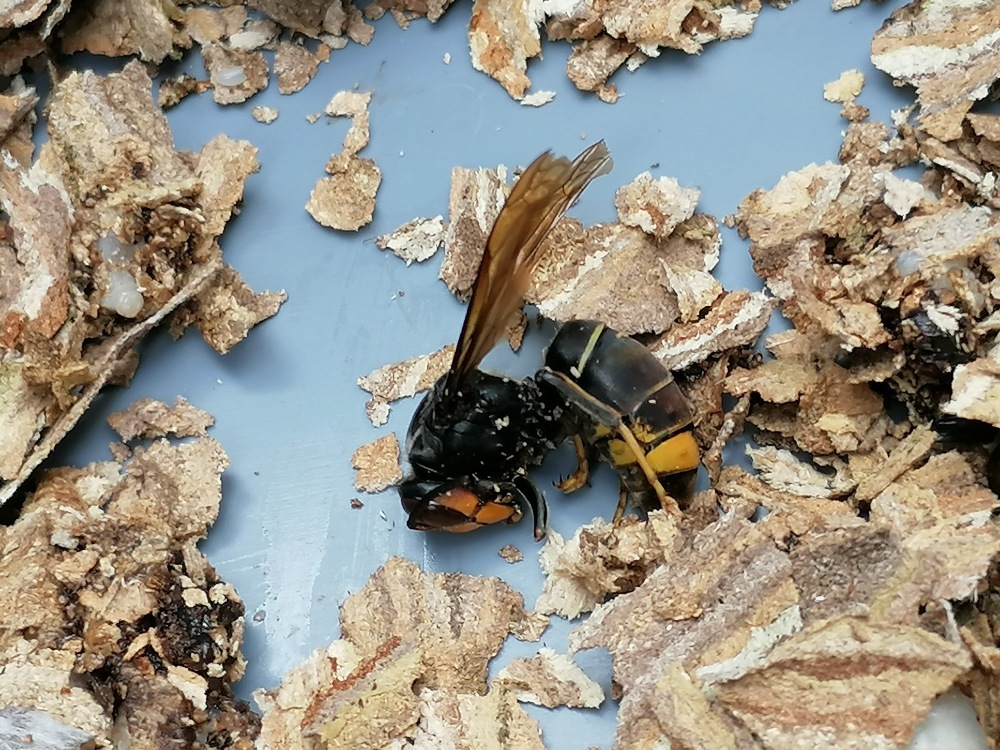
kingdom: Animalia
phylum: Arthropoda
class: Insecta
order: Hymenoptera
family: Vespidae
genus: Vespa
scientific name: Vespa velutina
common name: Asian hornet
